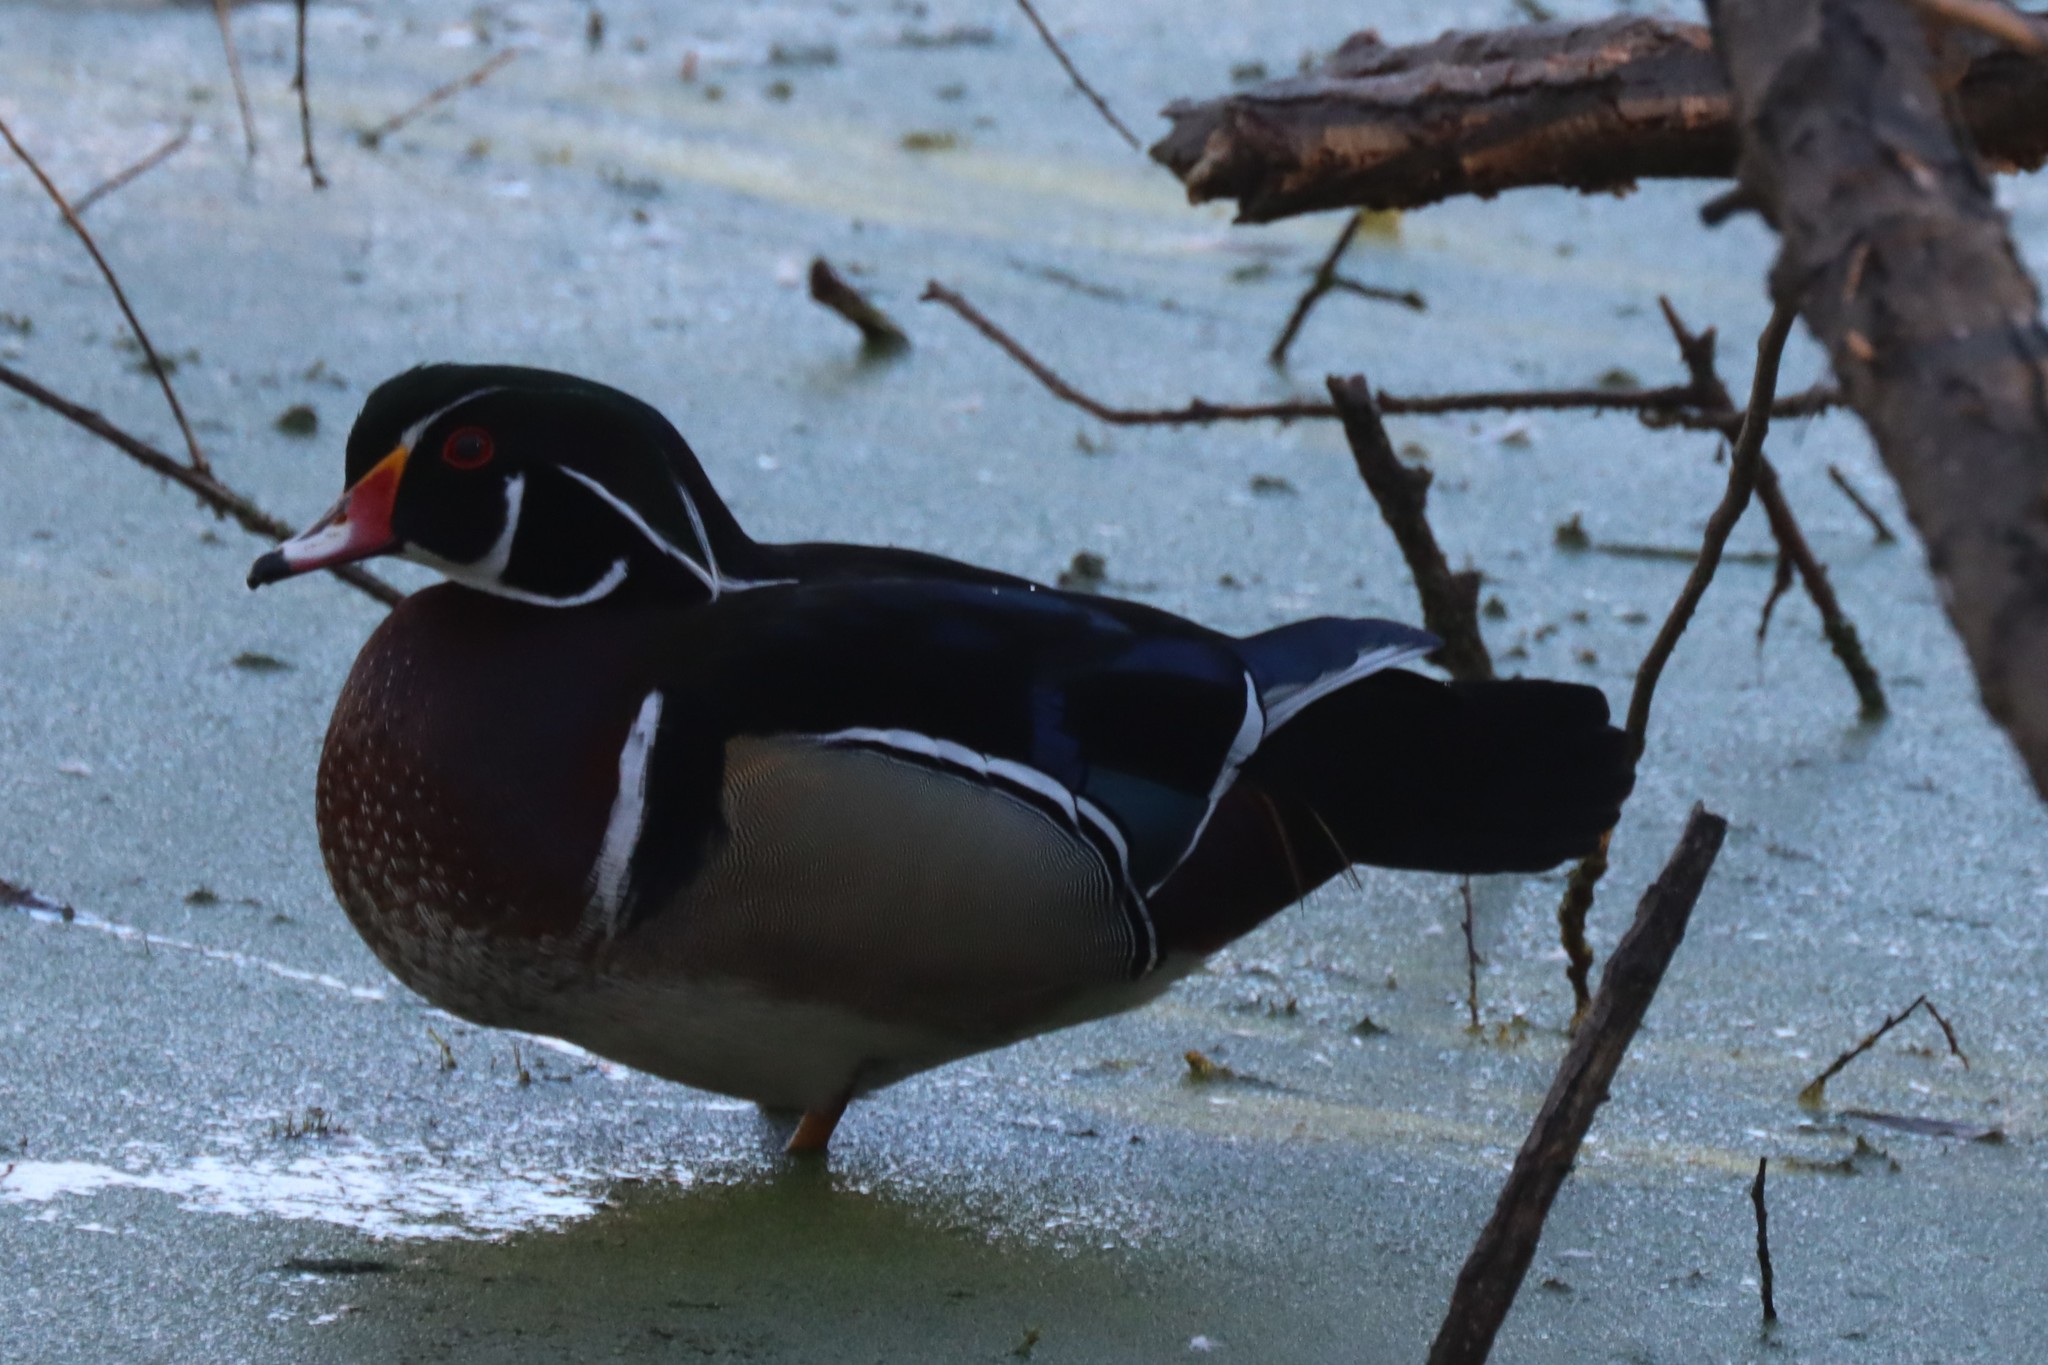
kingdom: Animalia
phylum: Chordata
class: Aves
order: Anseriformes
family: Anatidae
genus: Aix
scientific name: Aix sponsa
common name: Wood duck
